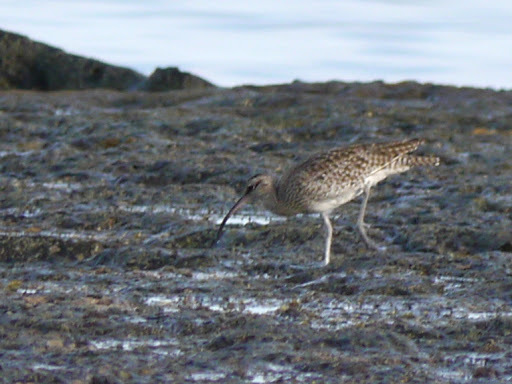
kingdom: Animalia
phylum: Chordata
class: Aves
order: Charadriiformes
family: Scolopacidae
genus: Numenius
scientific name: Numenius phaeopus
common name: Whimbrel
